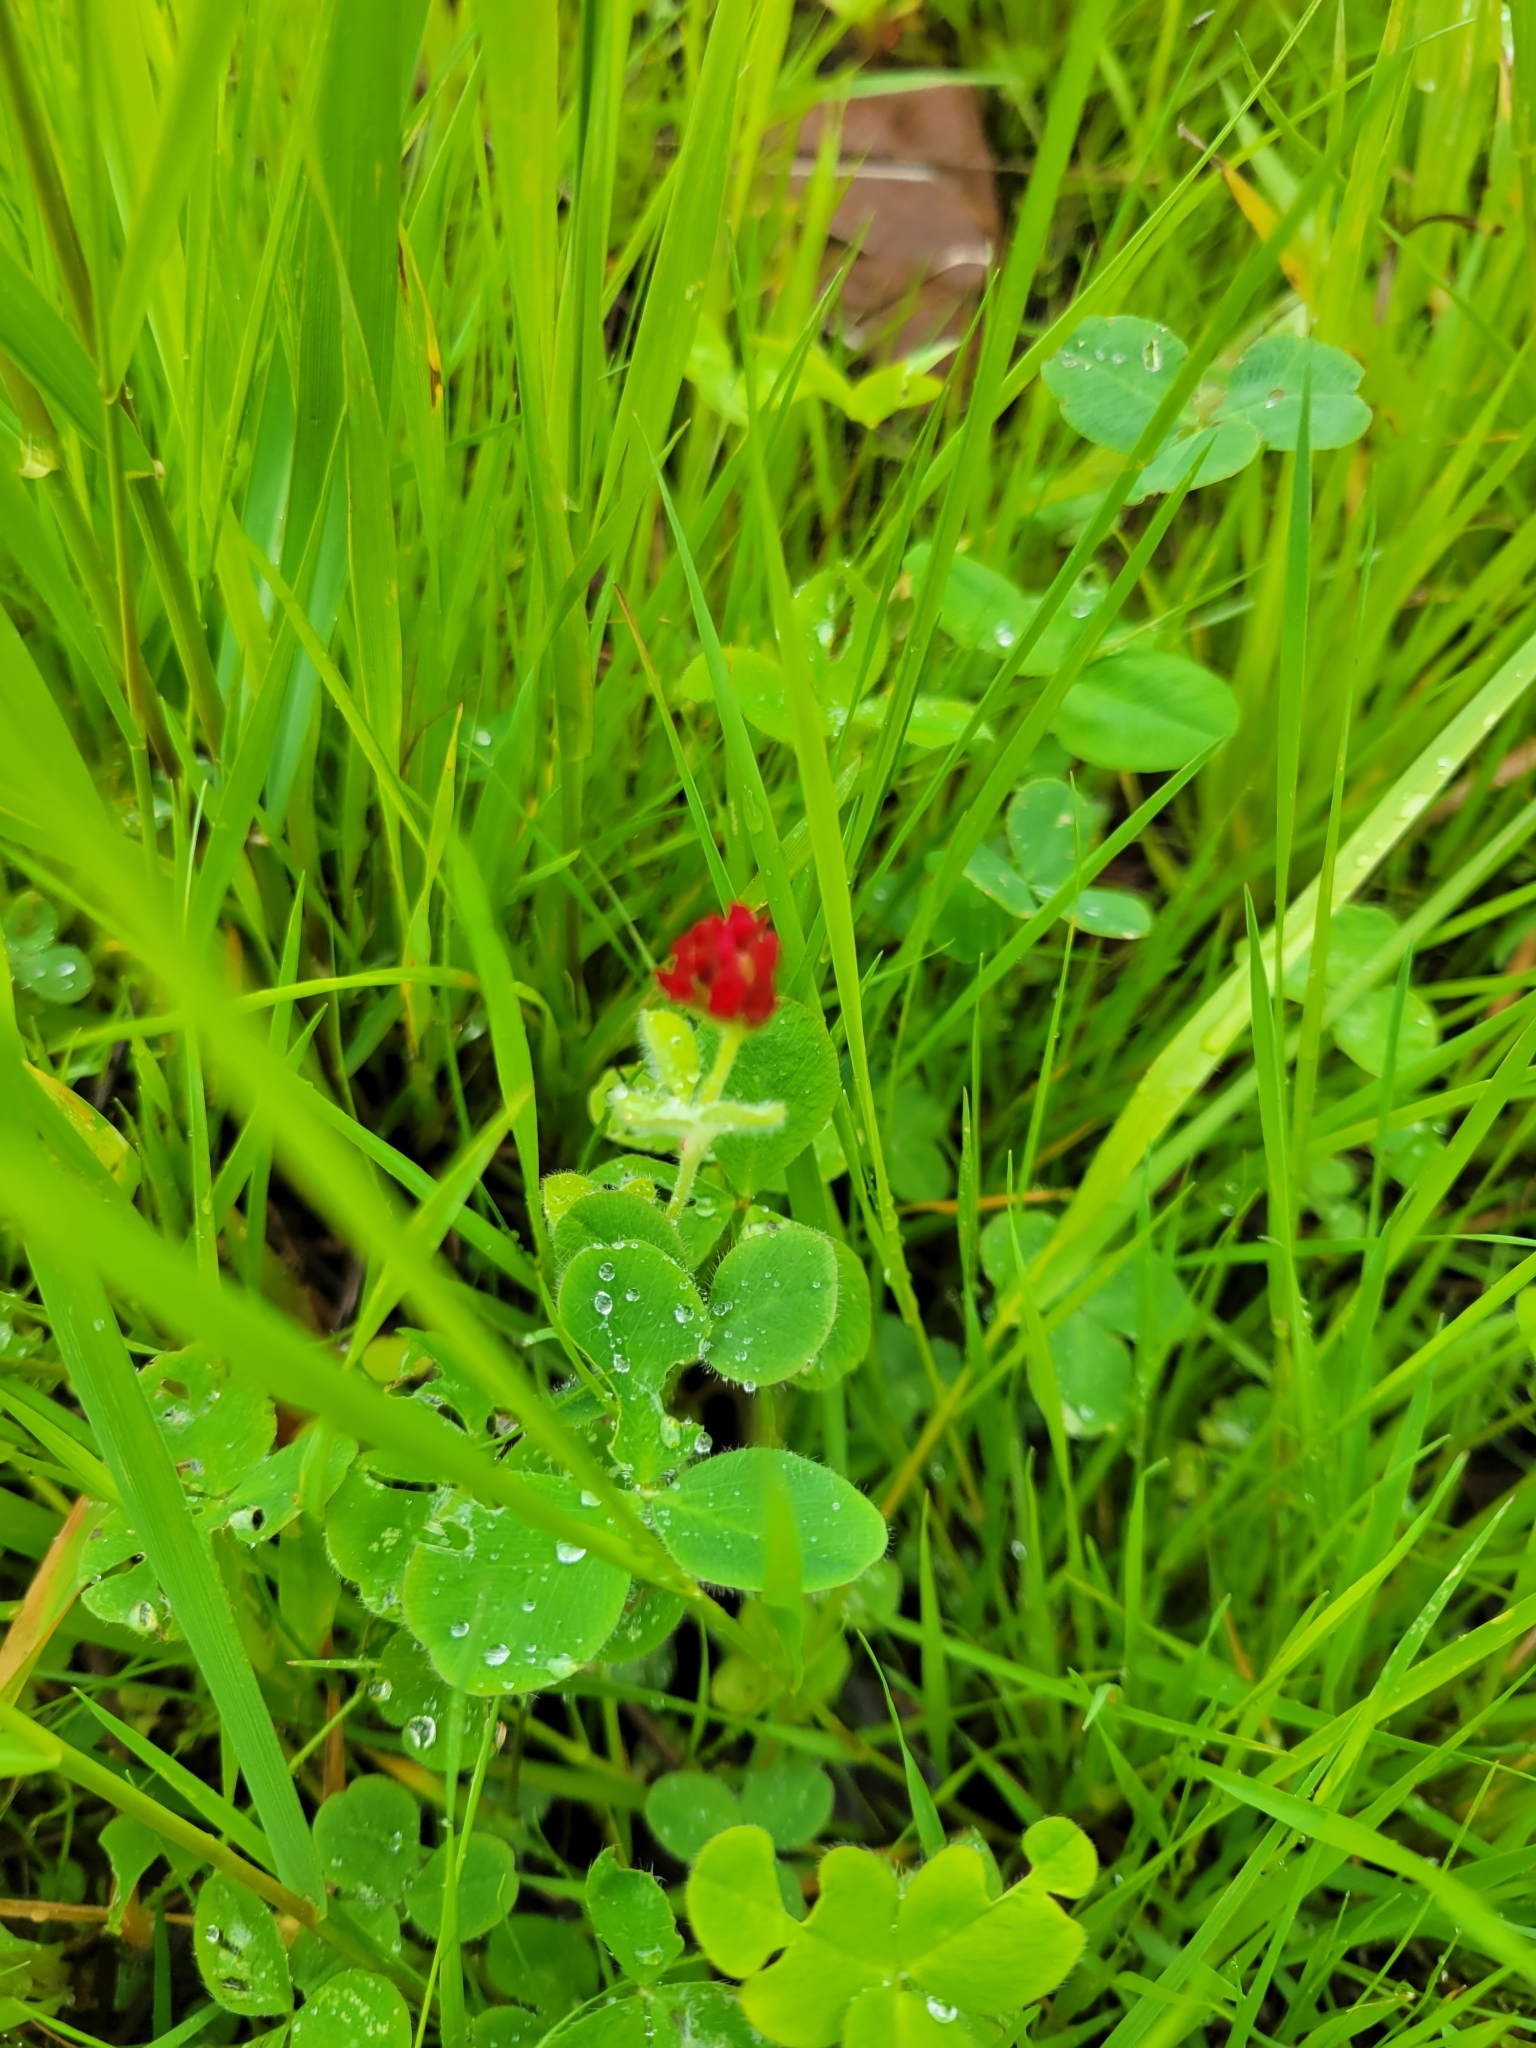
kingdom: Plantae
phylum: Tracheophyta
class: Magnoliopsida
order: Fabales
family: Fabaceae
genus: Trifolium
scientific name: Trifolium incarnatum
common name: Crimson clover
